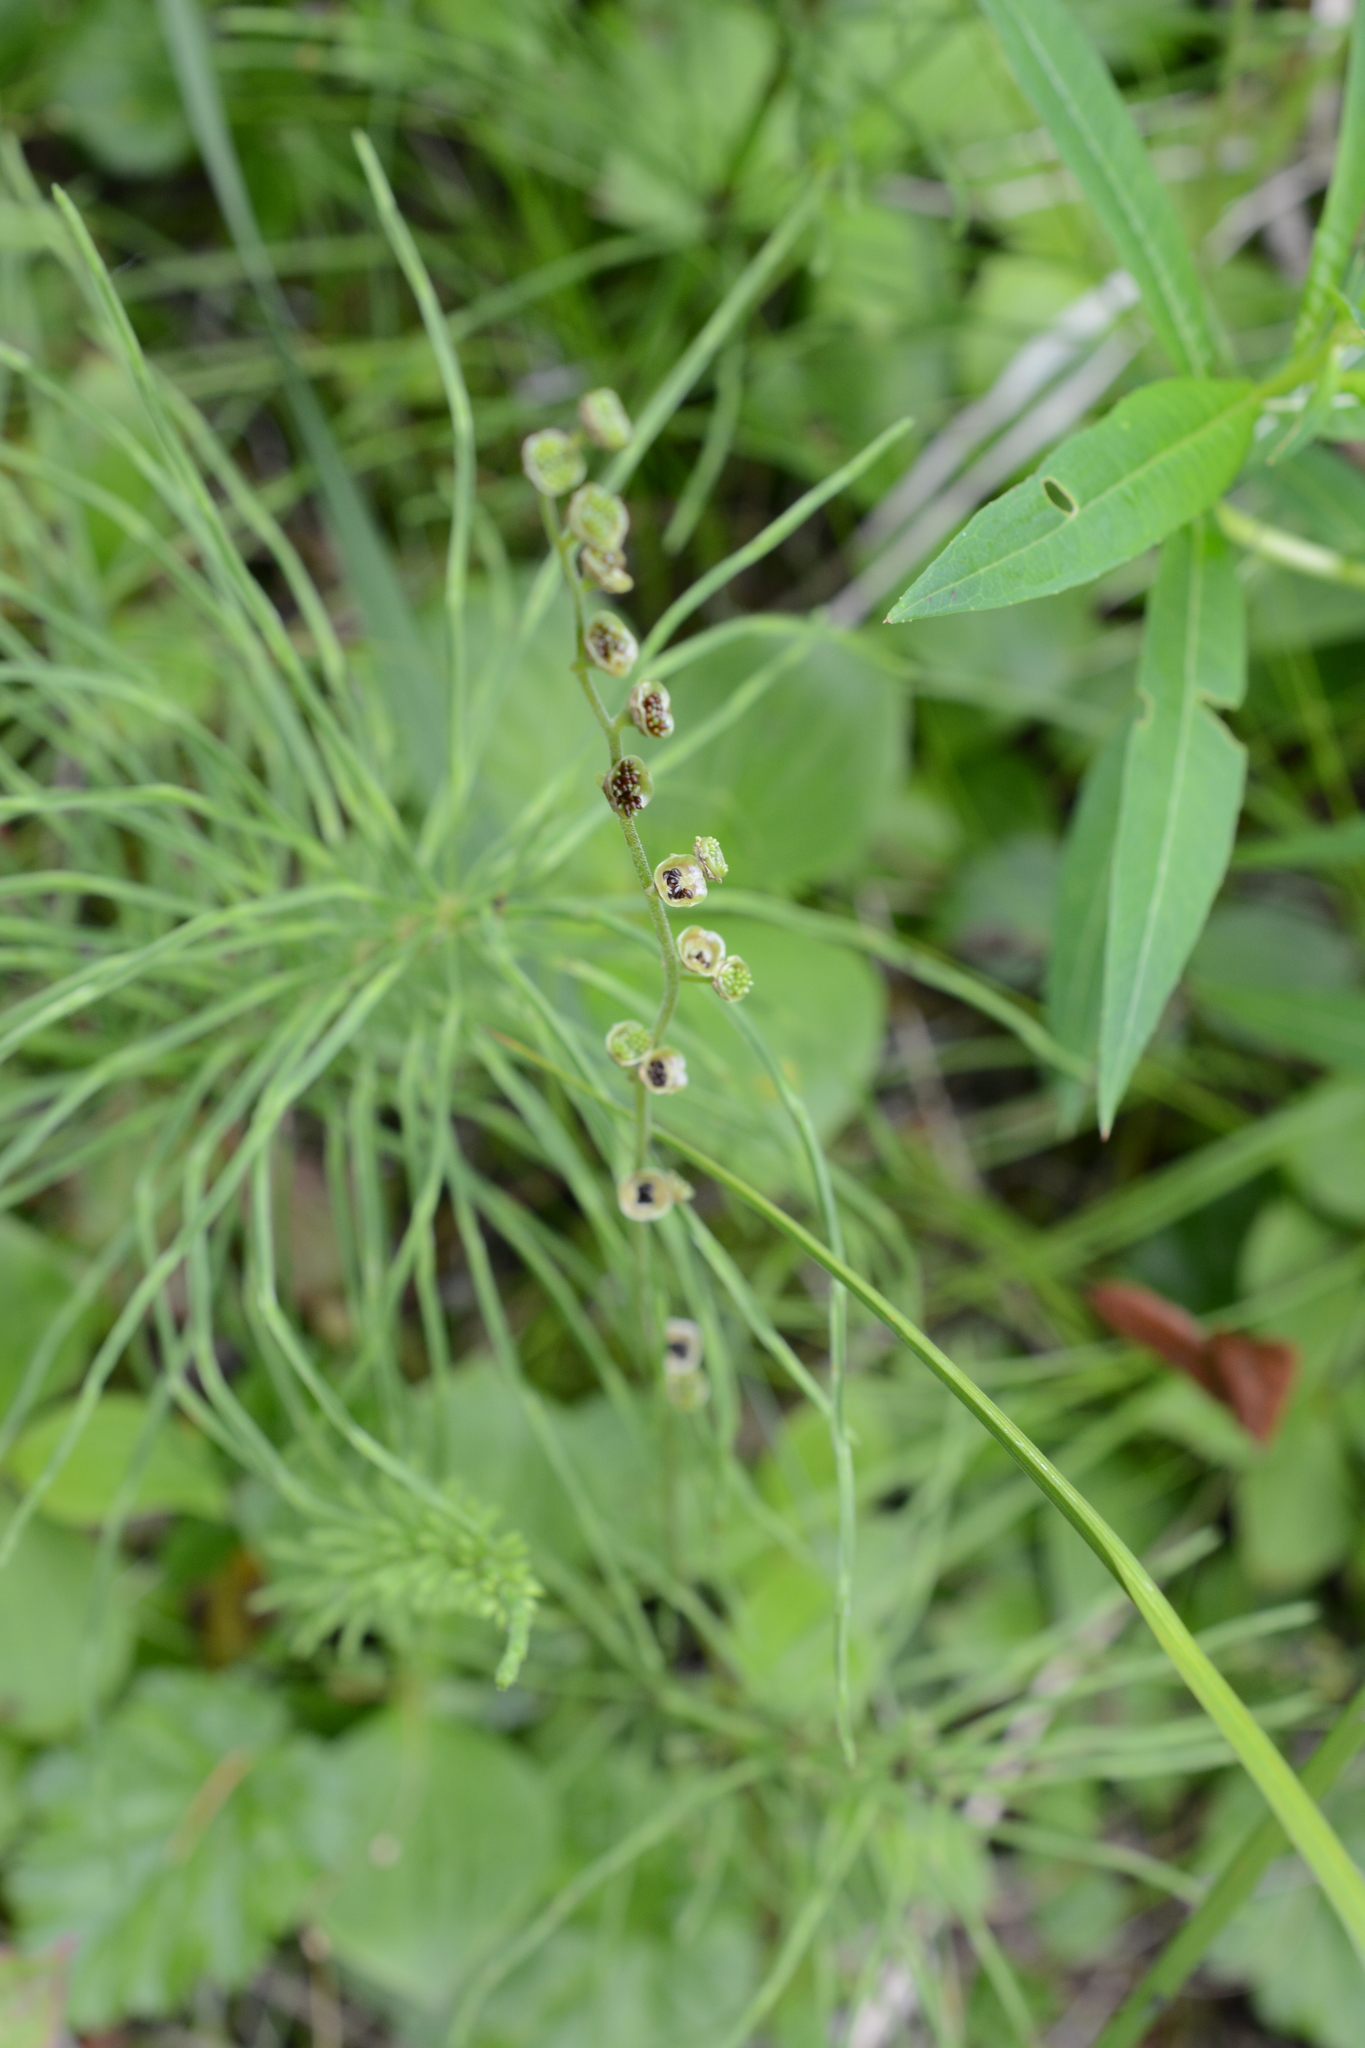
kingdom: Plantae
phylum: Tracheophyta
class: Magnoliopsida
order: Saxifragales
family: Saxifragaceae
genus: Pectiantia
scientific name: Pectiantia pentandra
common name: Alpine bishop's-cap
